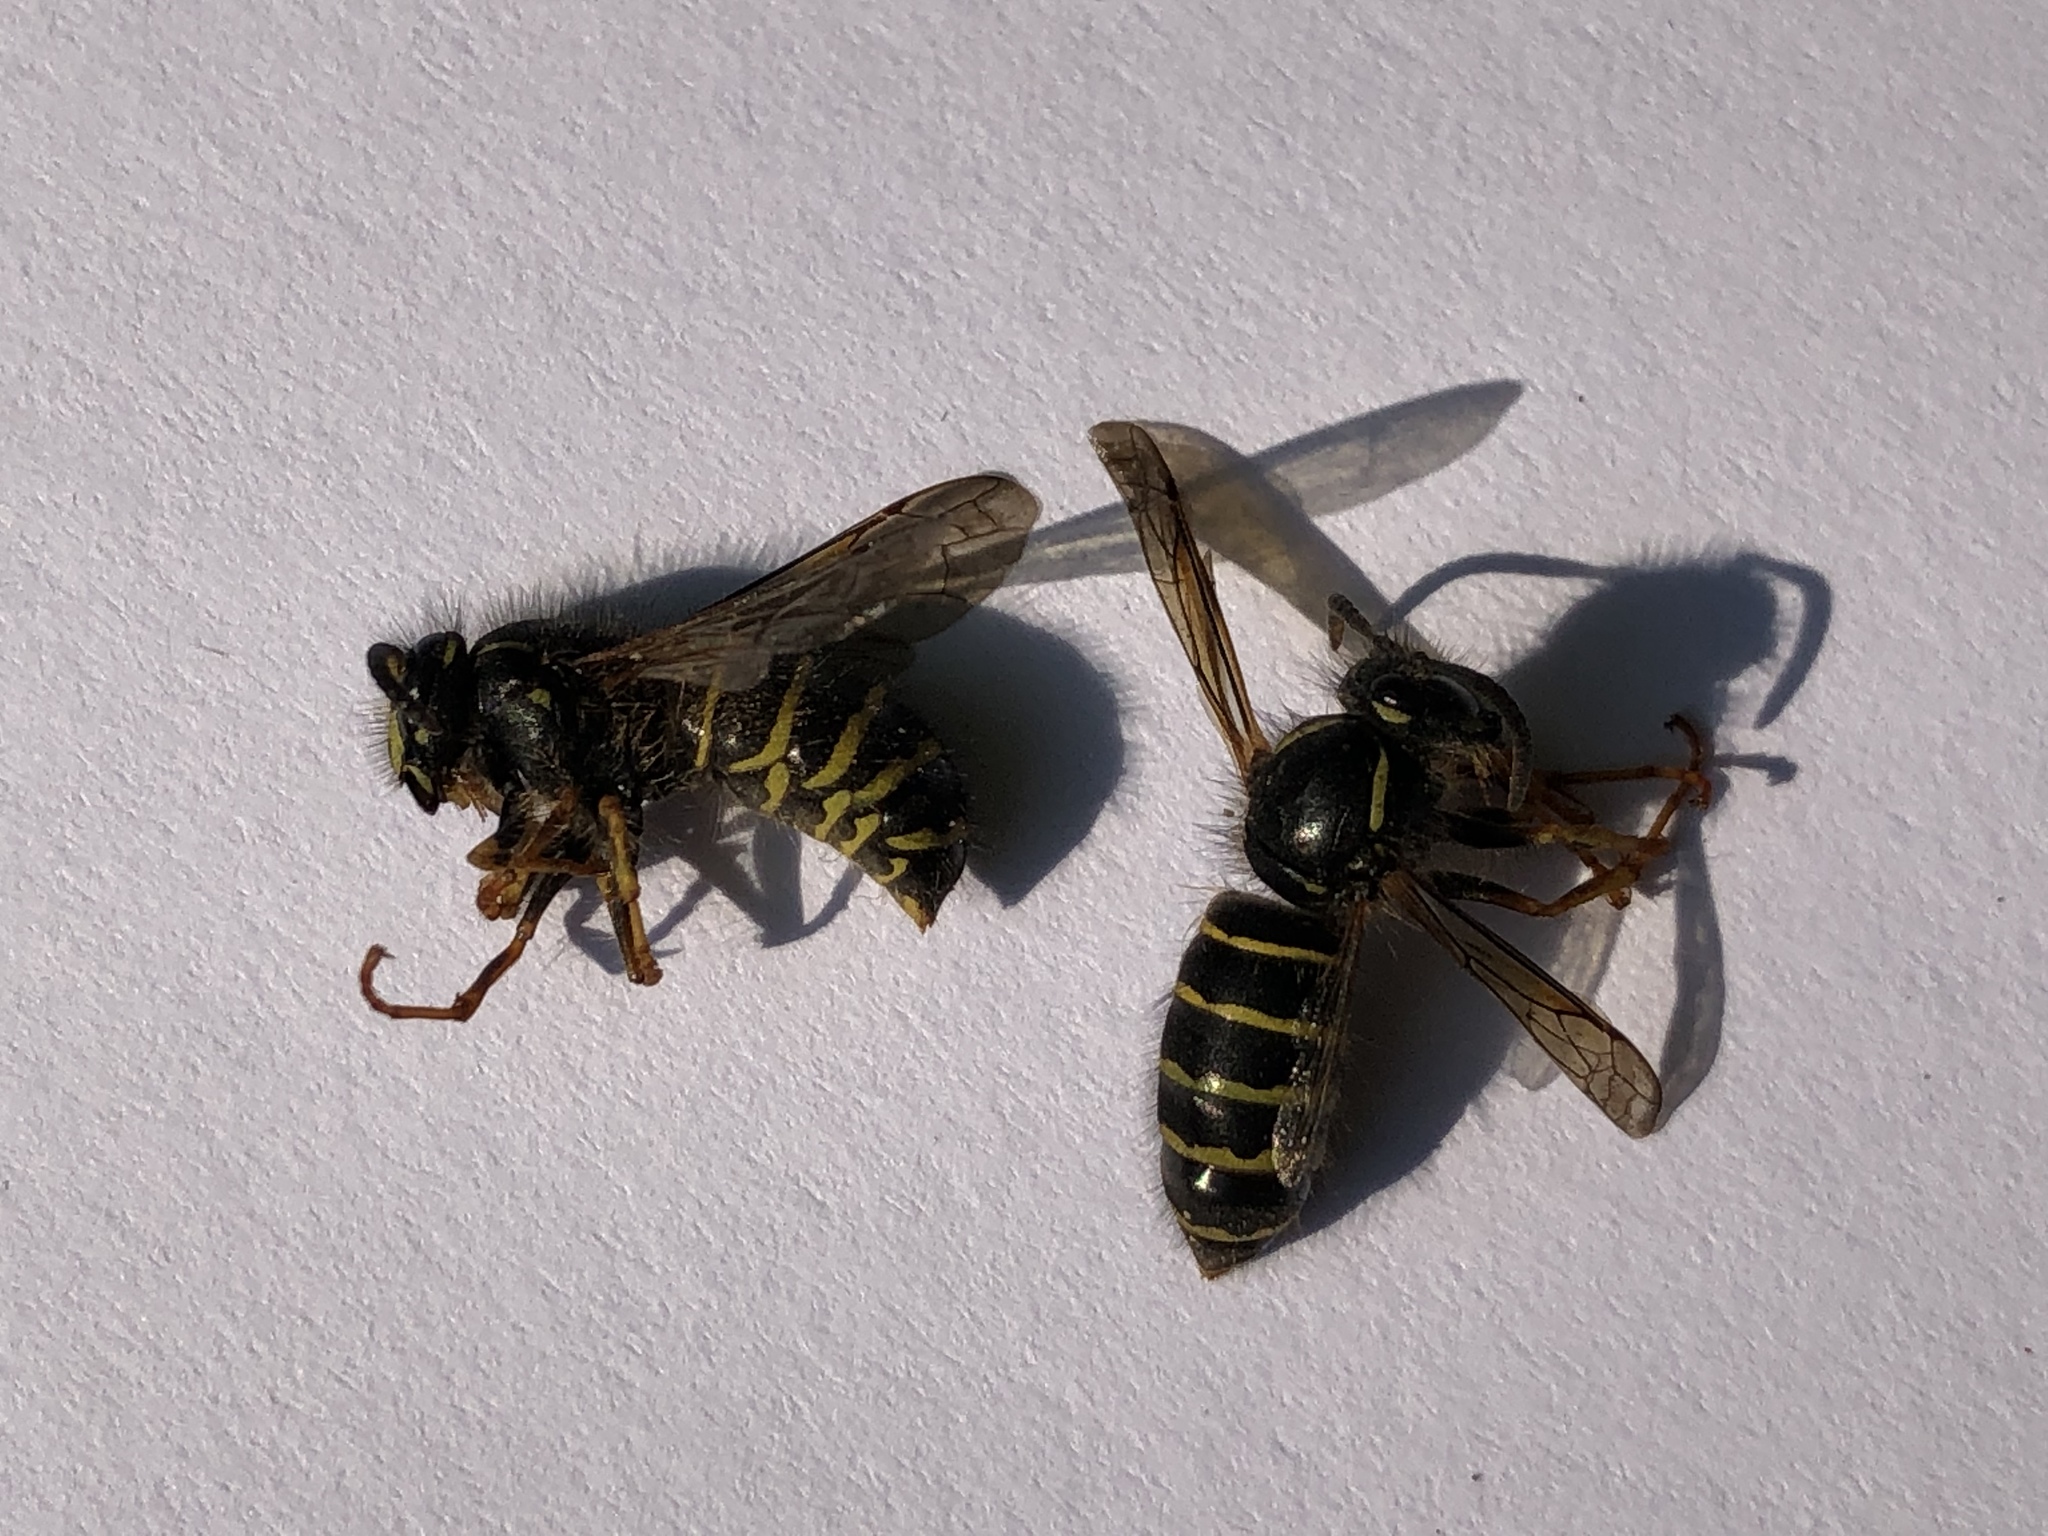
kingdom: Animalia
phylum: Arthropoda
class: Insecta
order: Hymenoptera
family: Vespidae
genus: Dolichovespula
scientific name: Dolichovespula norvegicoides
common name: Northern aerial yellowjacket
